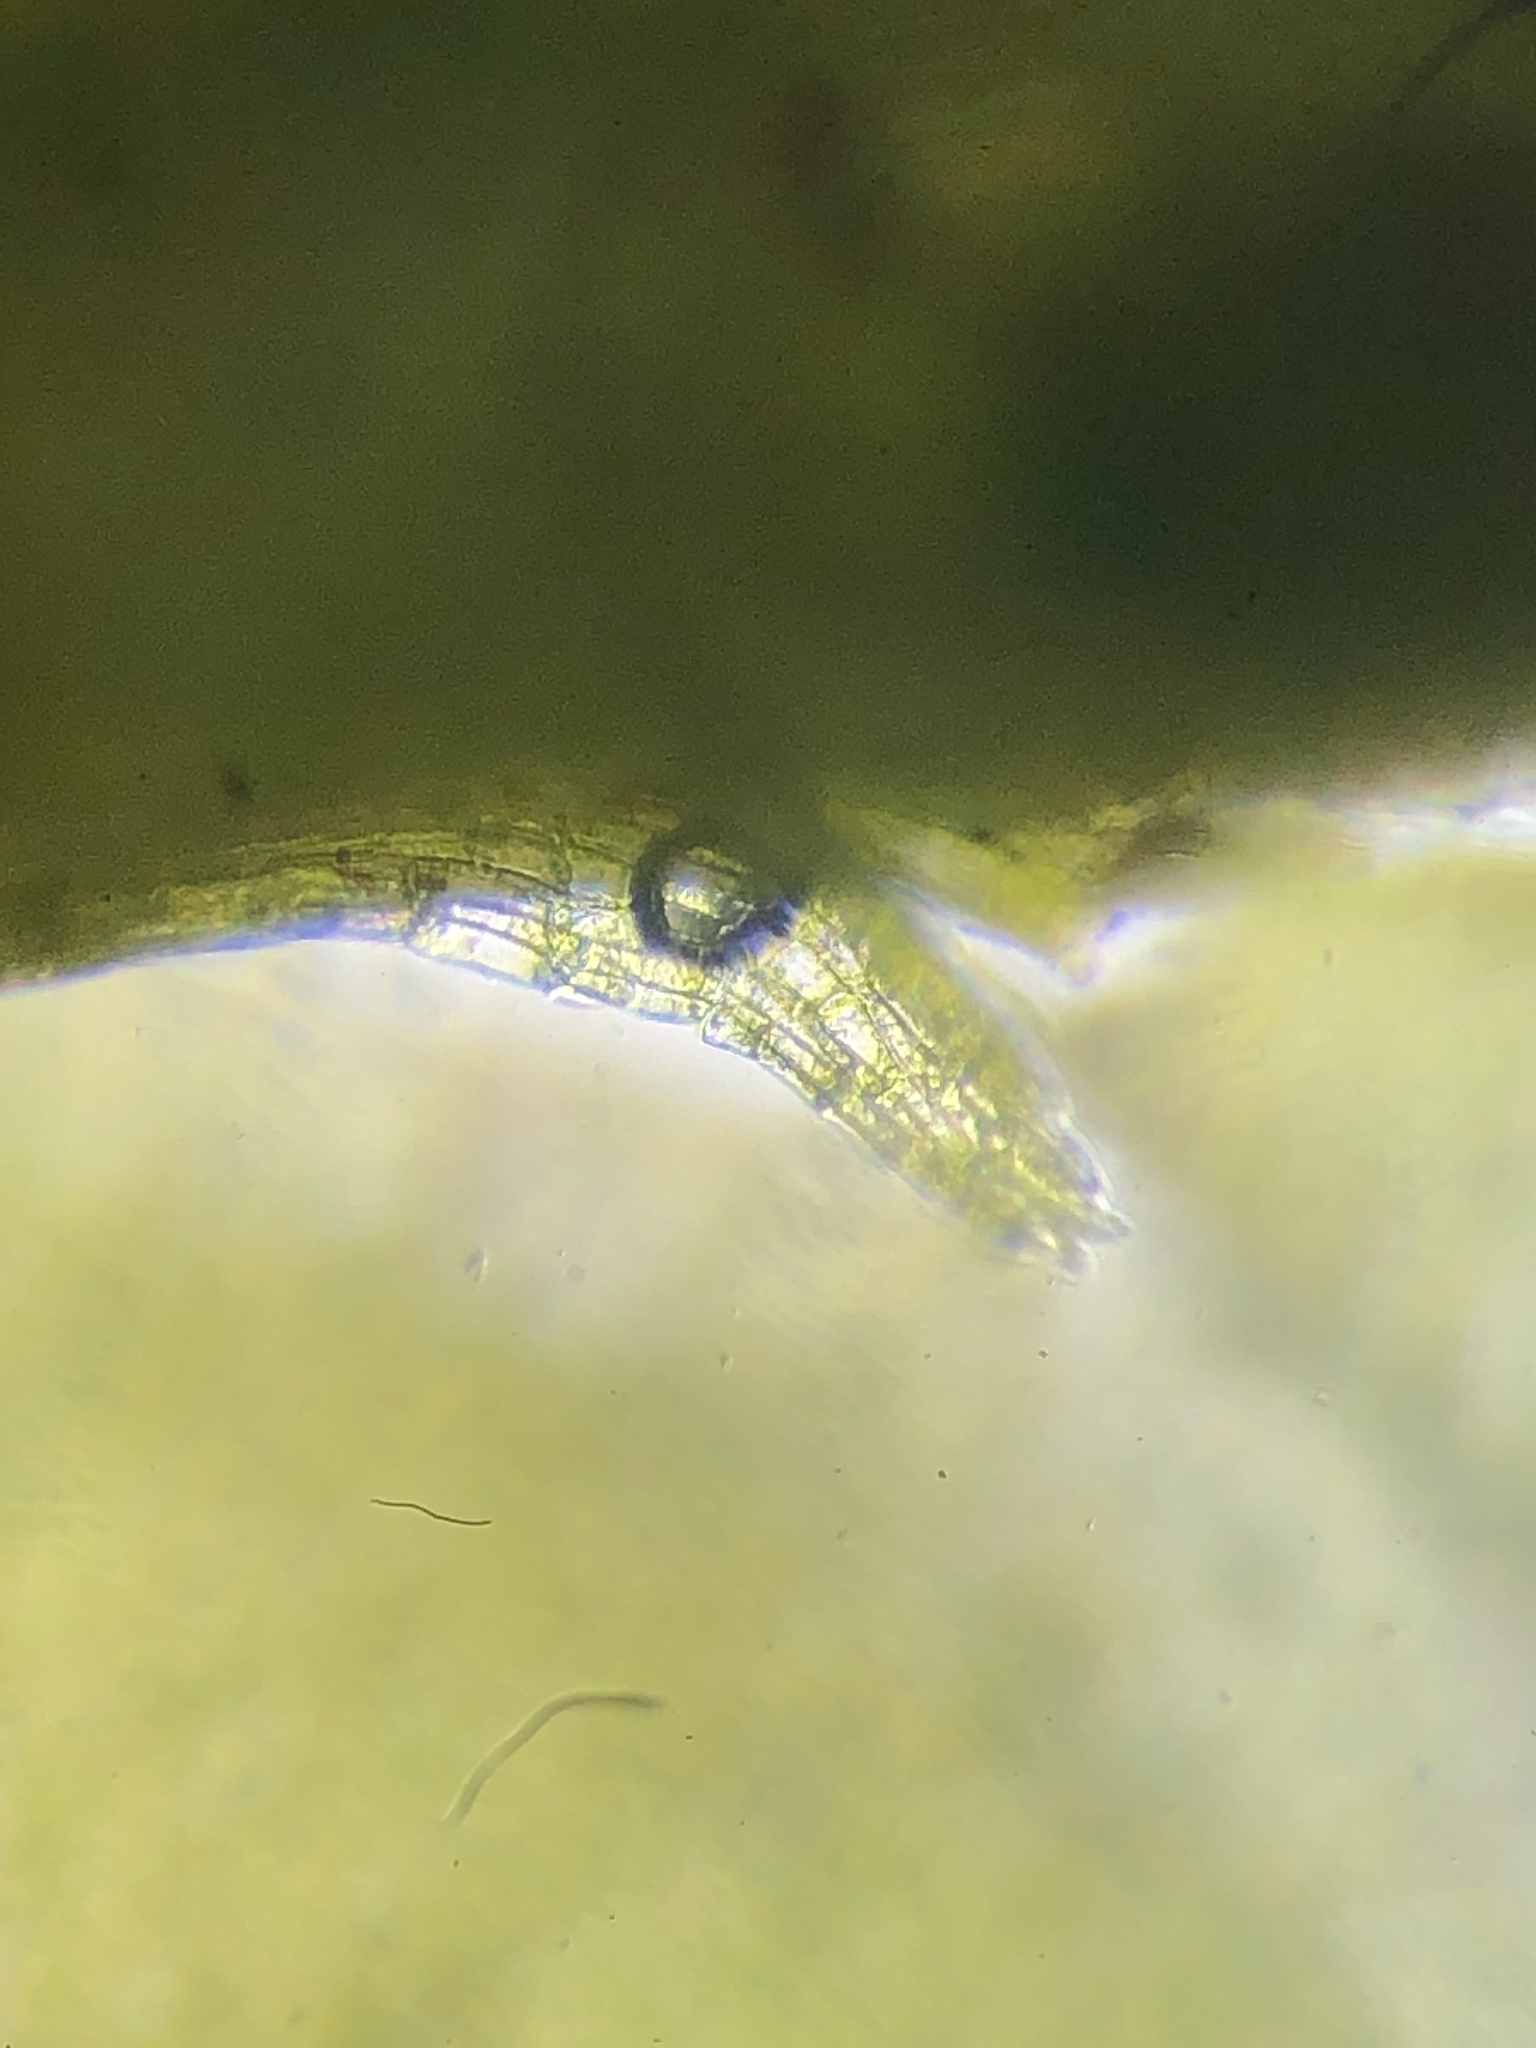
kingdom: Plantae
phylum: Bryophyta
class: Bryopsida
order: Hypnales
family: Plagiotheciaceae
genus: Plagiothecium
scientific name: Plagiothecium nemorale
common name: Woodsy silk-moss
